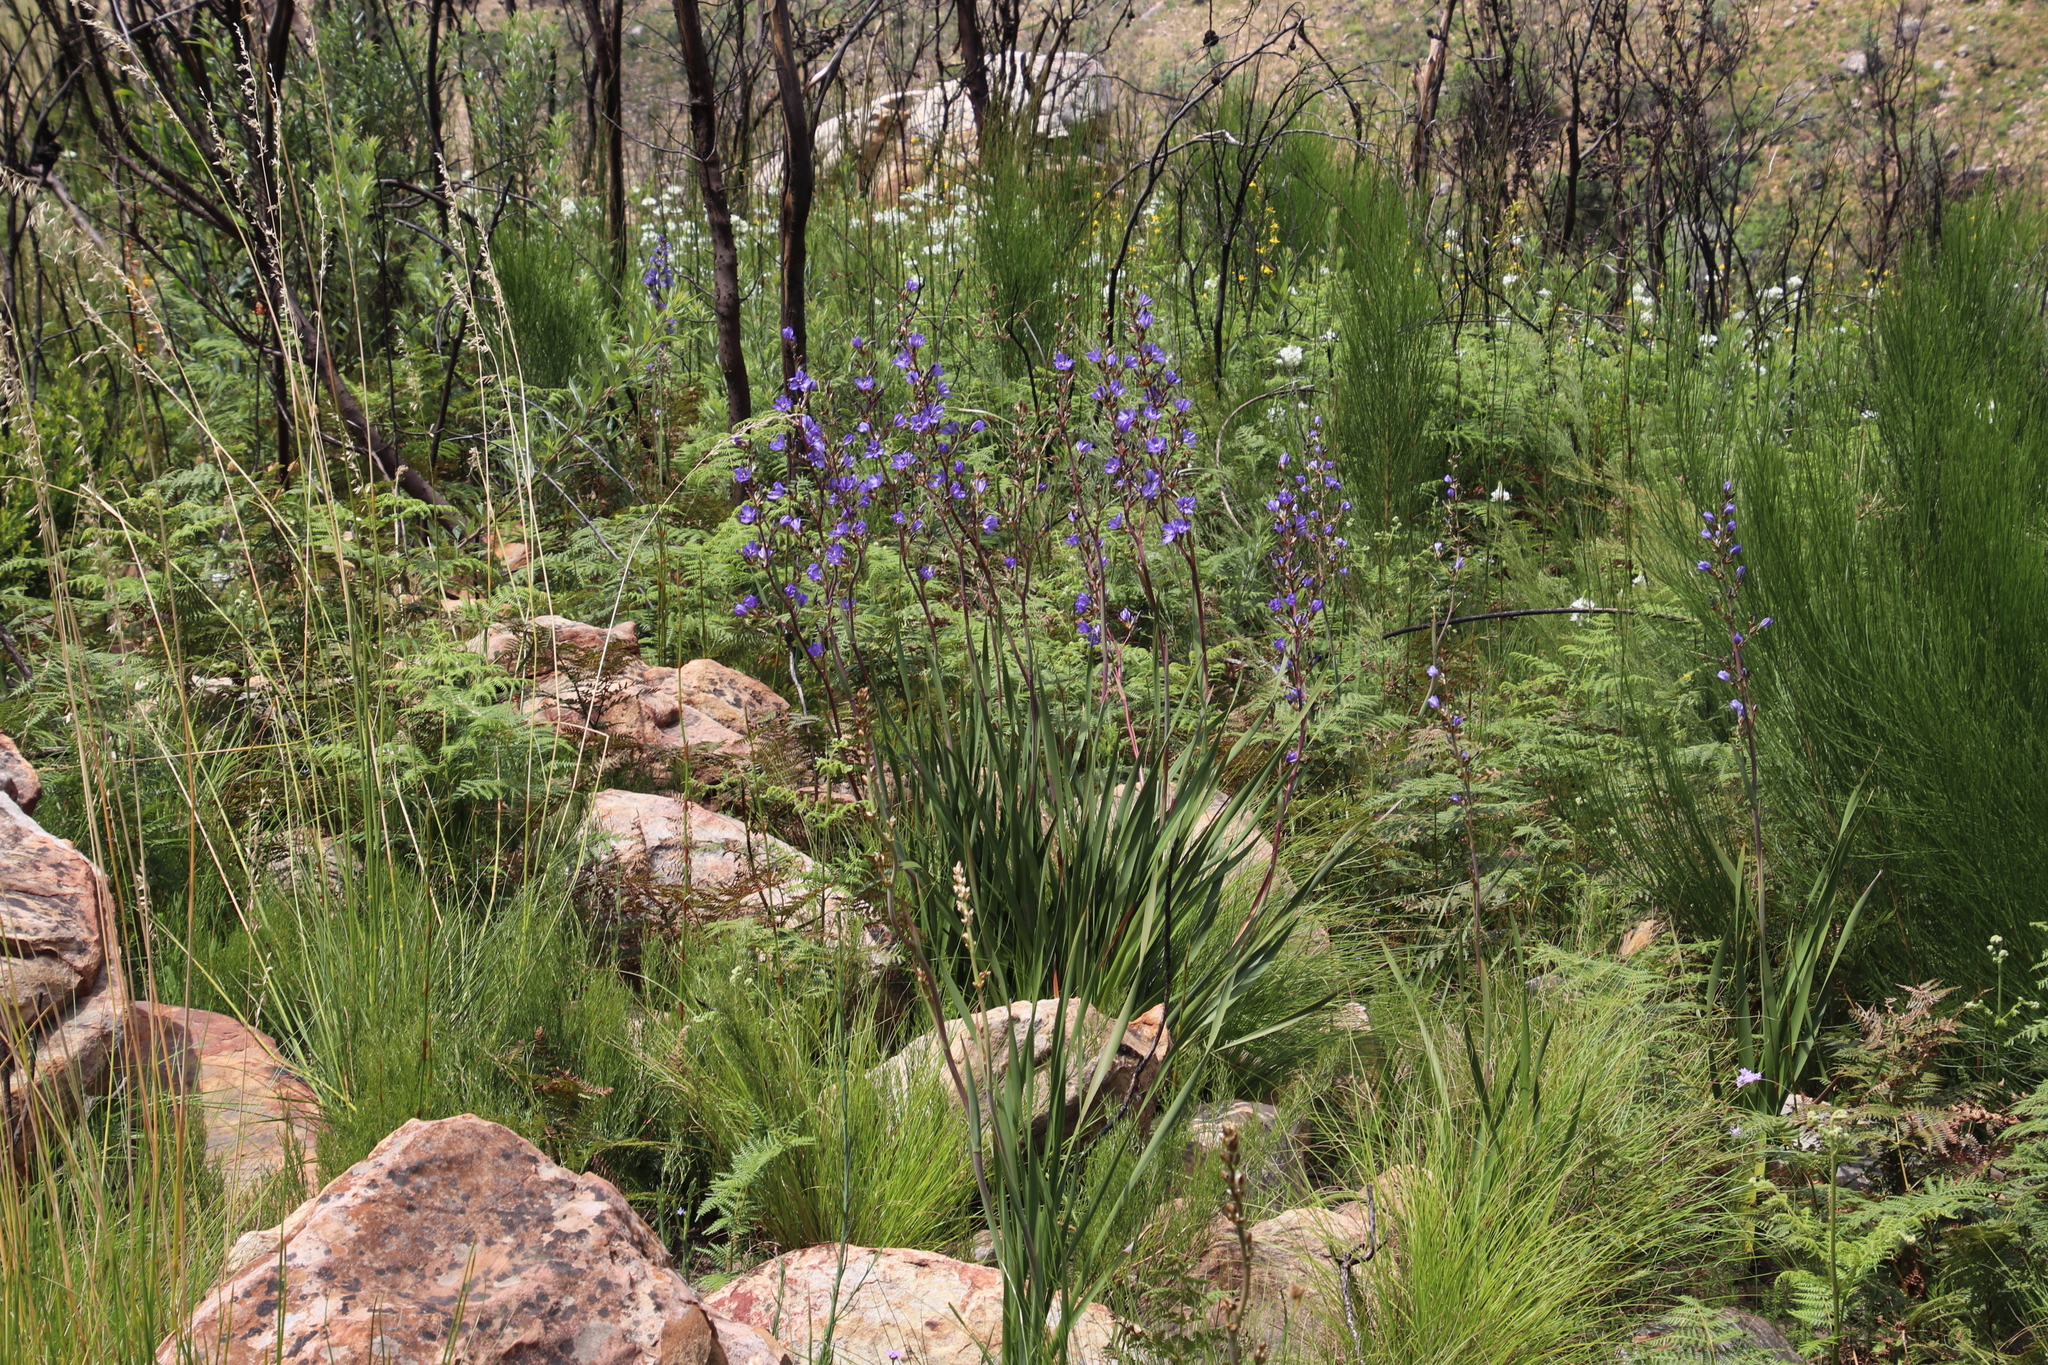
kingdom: Plantae
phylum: Tracheophyta
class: Liliopsida
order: Asparagales
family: Iridaceae
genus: Aristea
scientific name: Aristea bakeri
